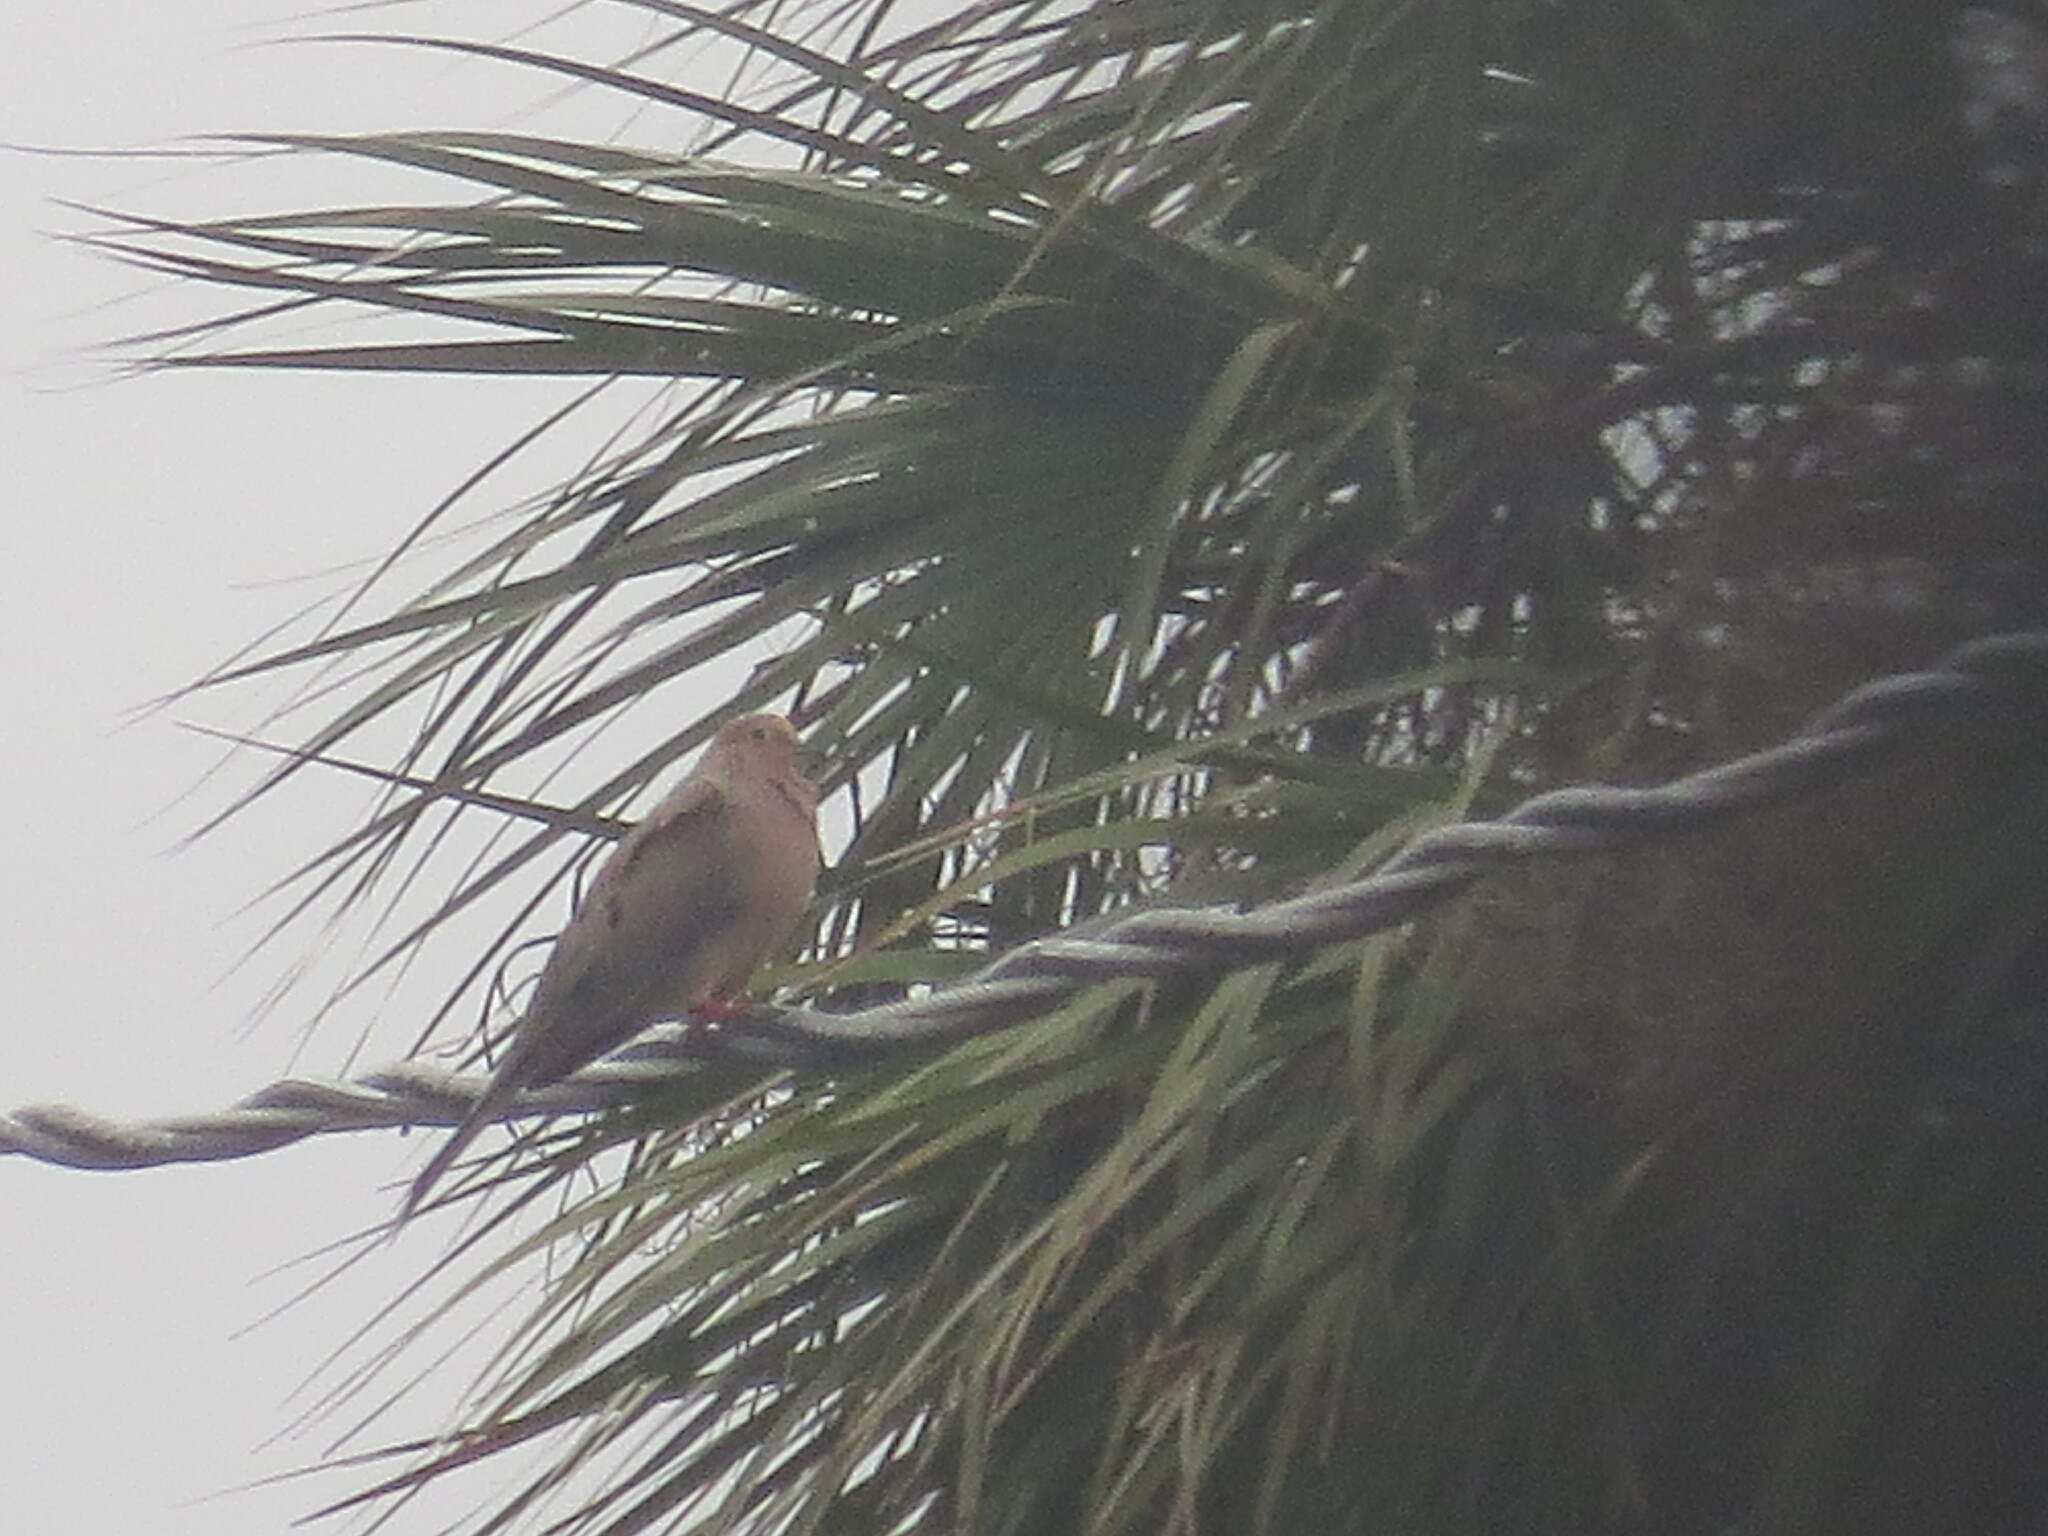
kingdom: Animalia
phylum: Chordata
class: Aves
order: Columbiformes
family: Columbidae
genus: Zenaida
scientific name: Zenaida macroura
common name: Mourning dove
